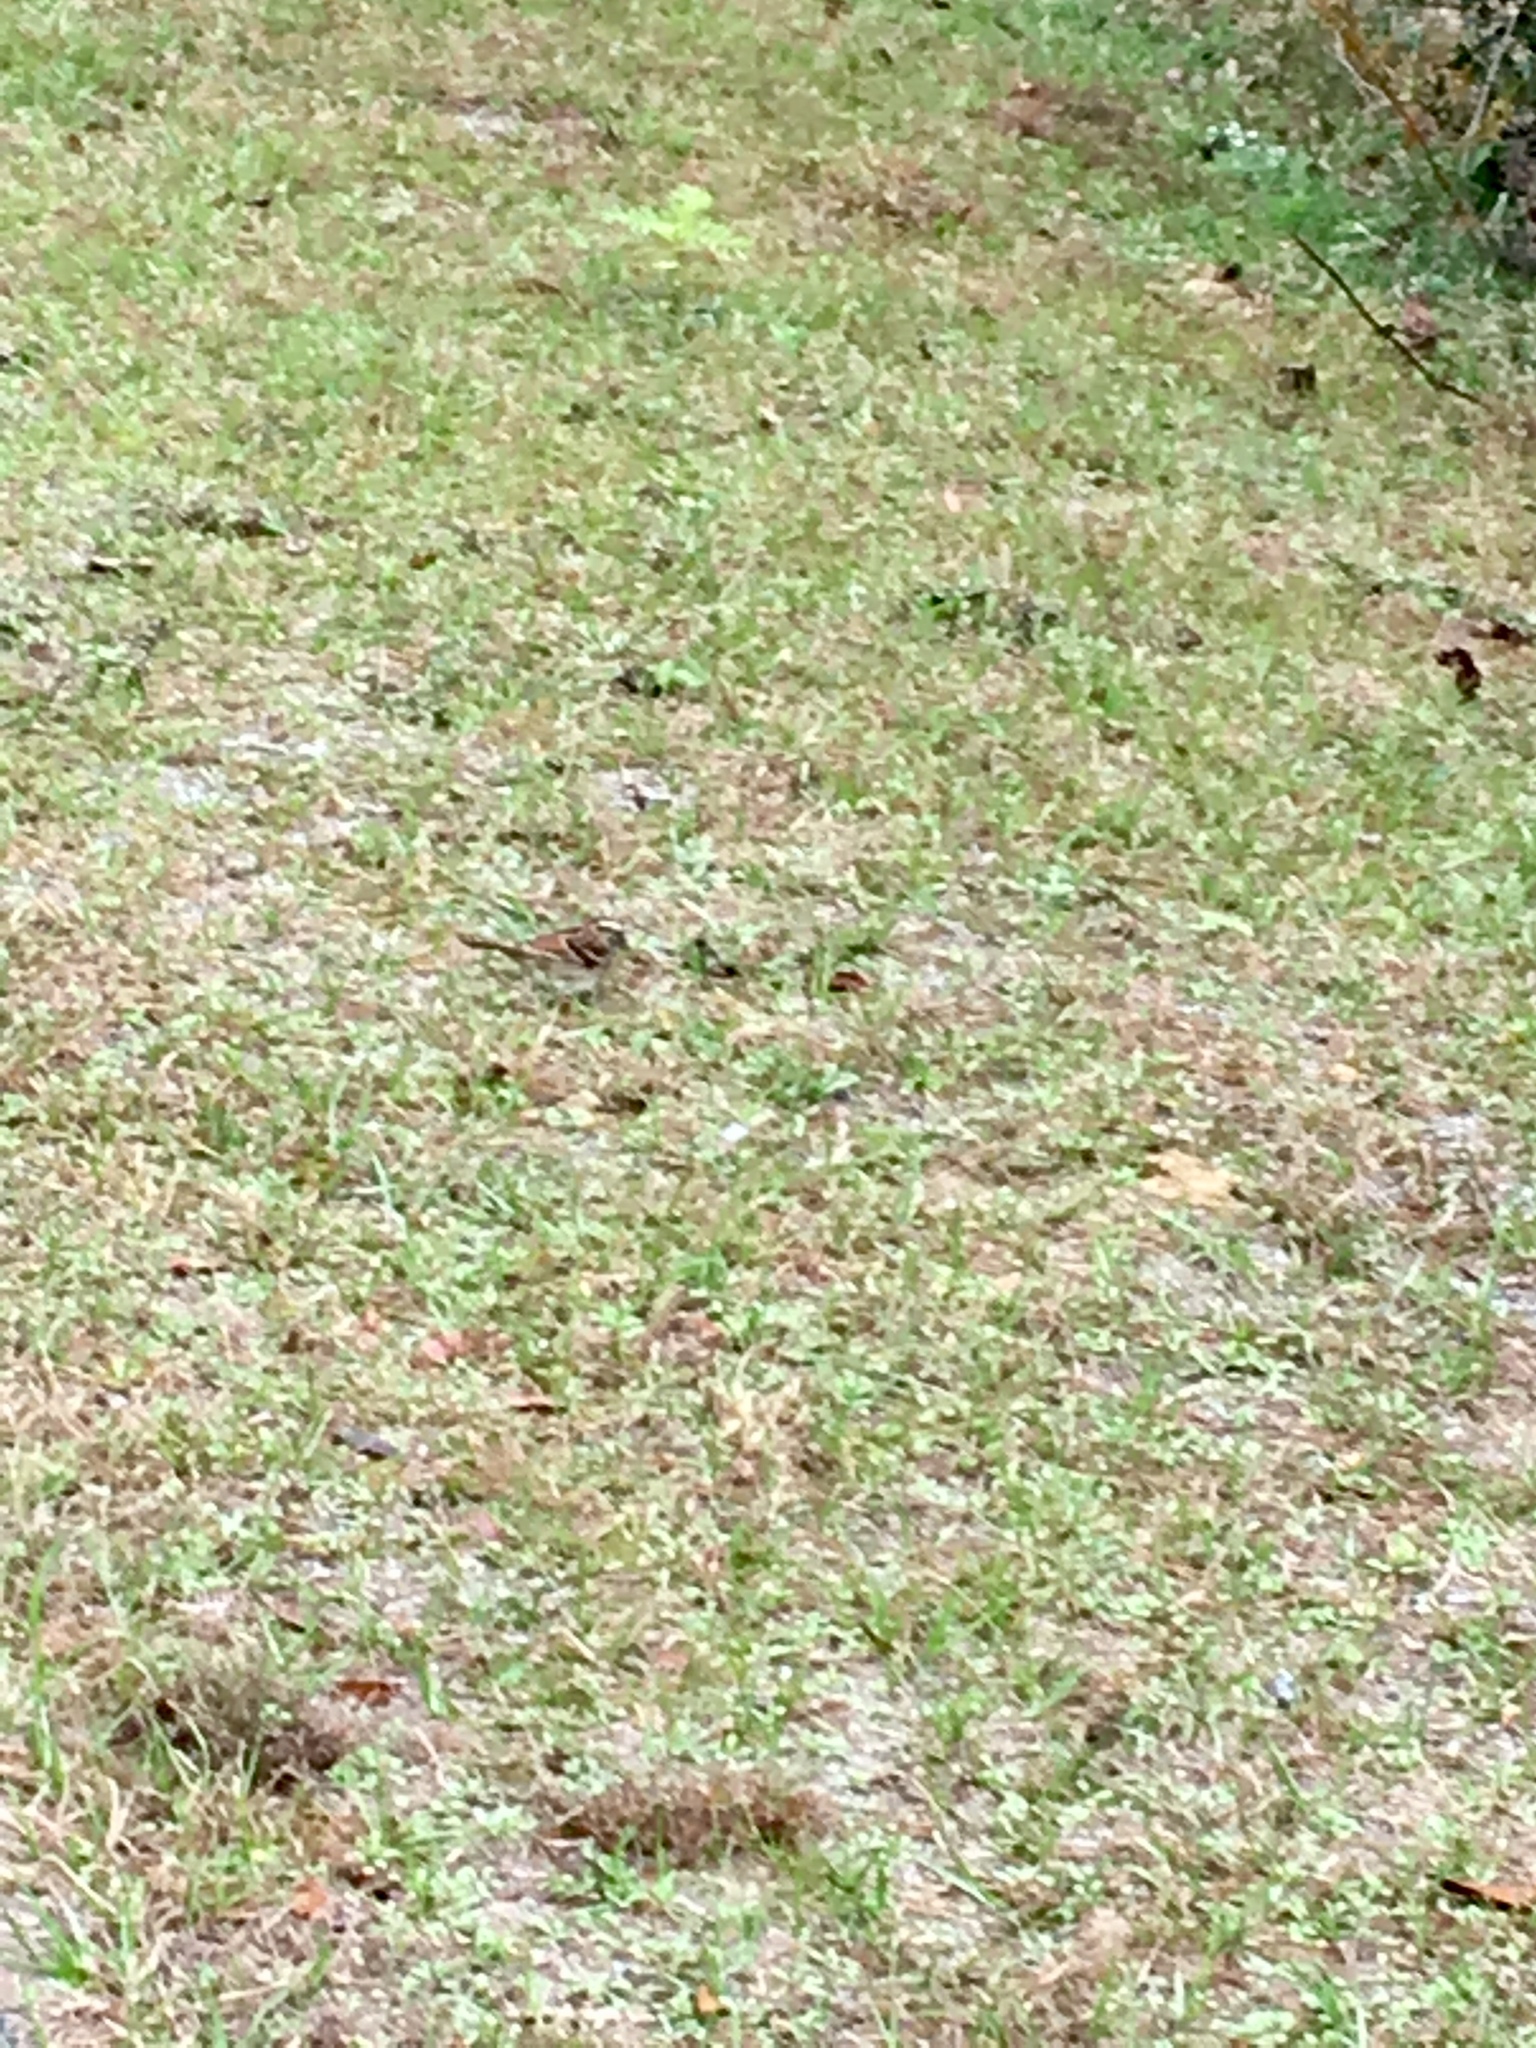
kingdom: Animalia
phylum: Chordata
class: Aves
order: Passeriformes
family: Passerellidae
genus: Zonotrichia
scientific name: Zonotrichia albicollis
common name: White-throated sparrow
